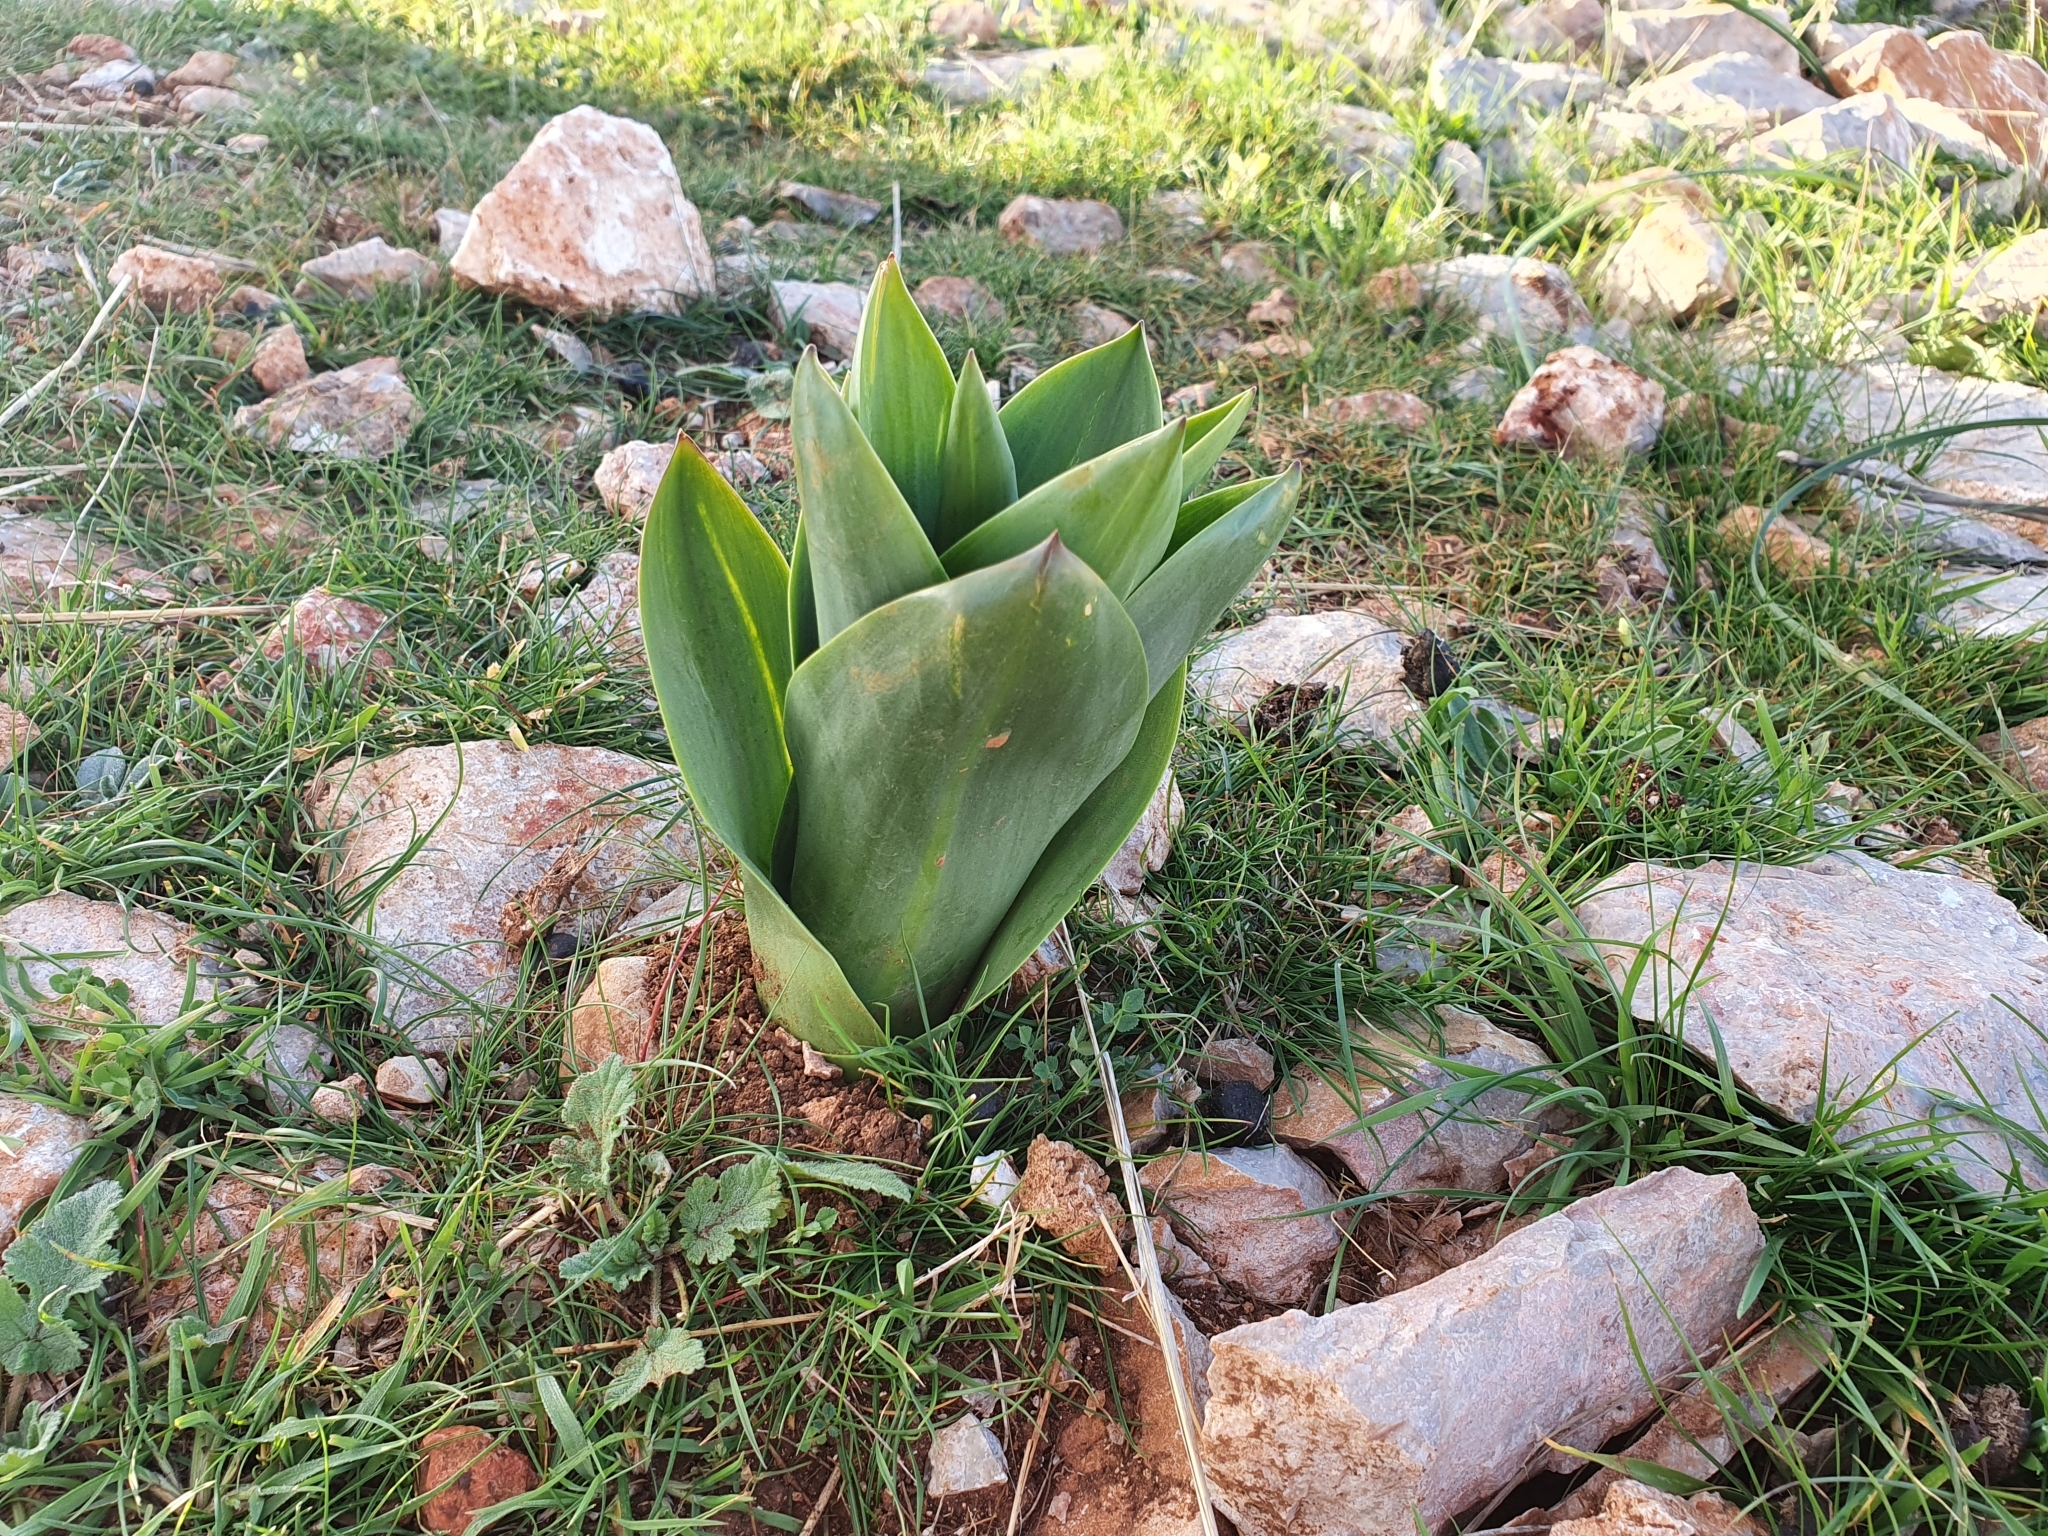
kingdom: Plantae
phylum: Tracheophyta
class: Liliopsida
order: Asparagales
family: Asparagaceae
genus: Drimia
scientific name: Drimia numidica
